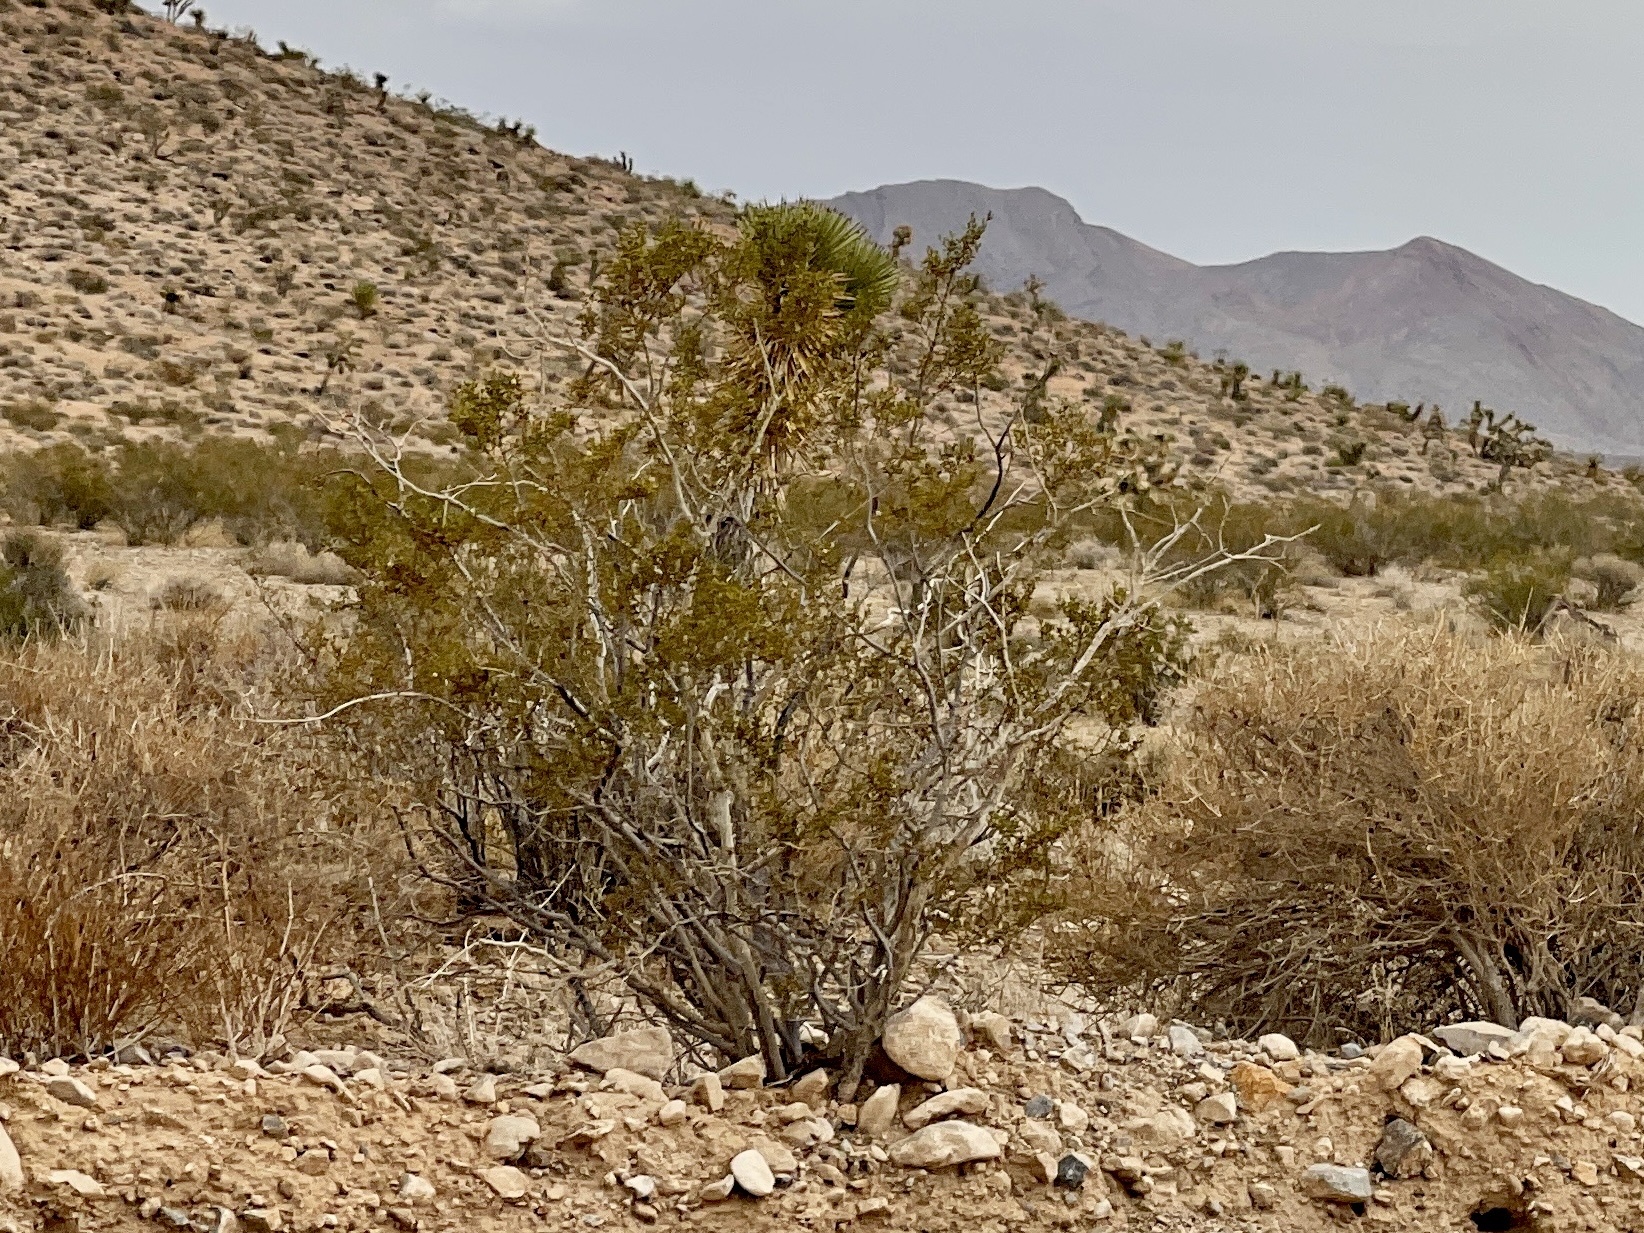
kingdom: Plantae
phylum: Tracheophyta
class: Magnoliopsida
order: Zygophyllales
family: Zygophyllaceae
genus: Larrea
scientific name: Larrea tridentata
